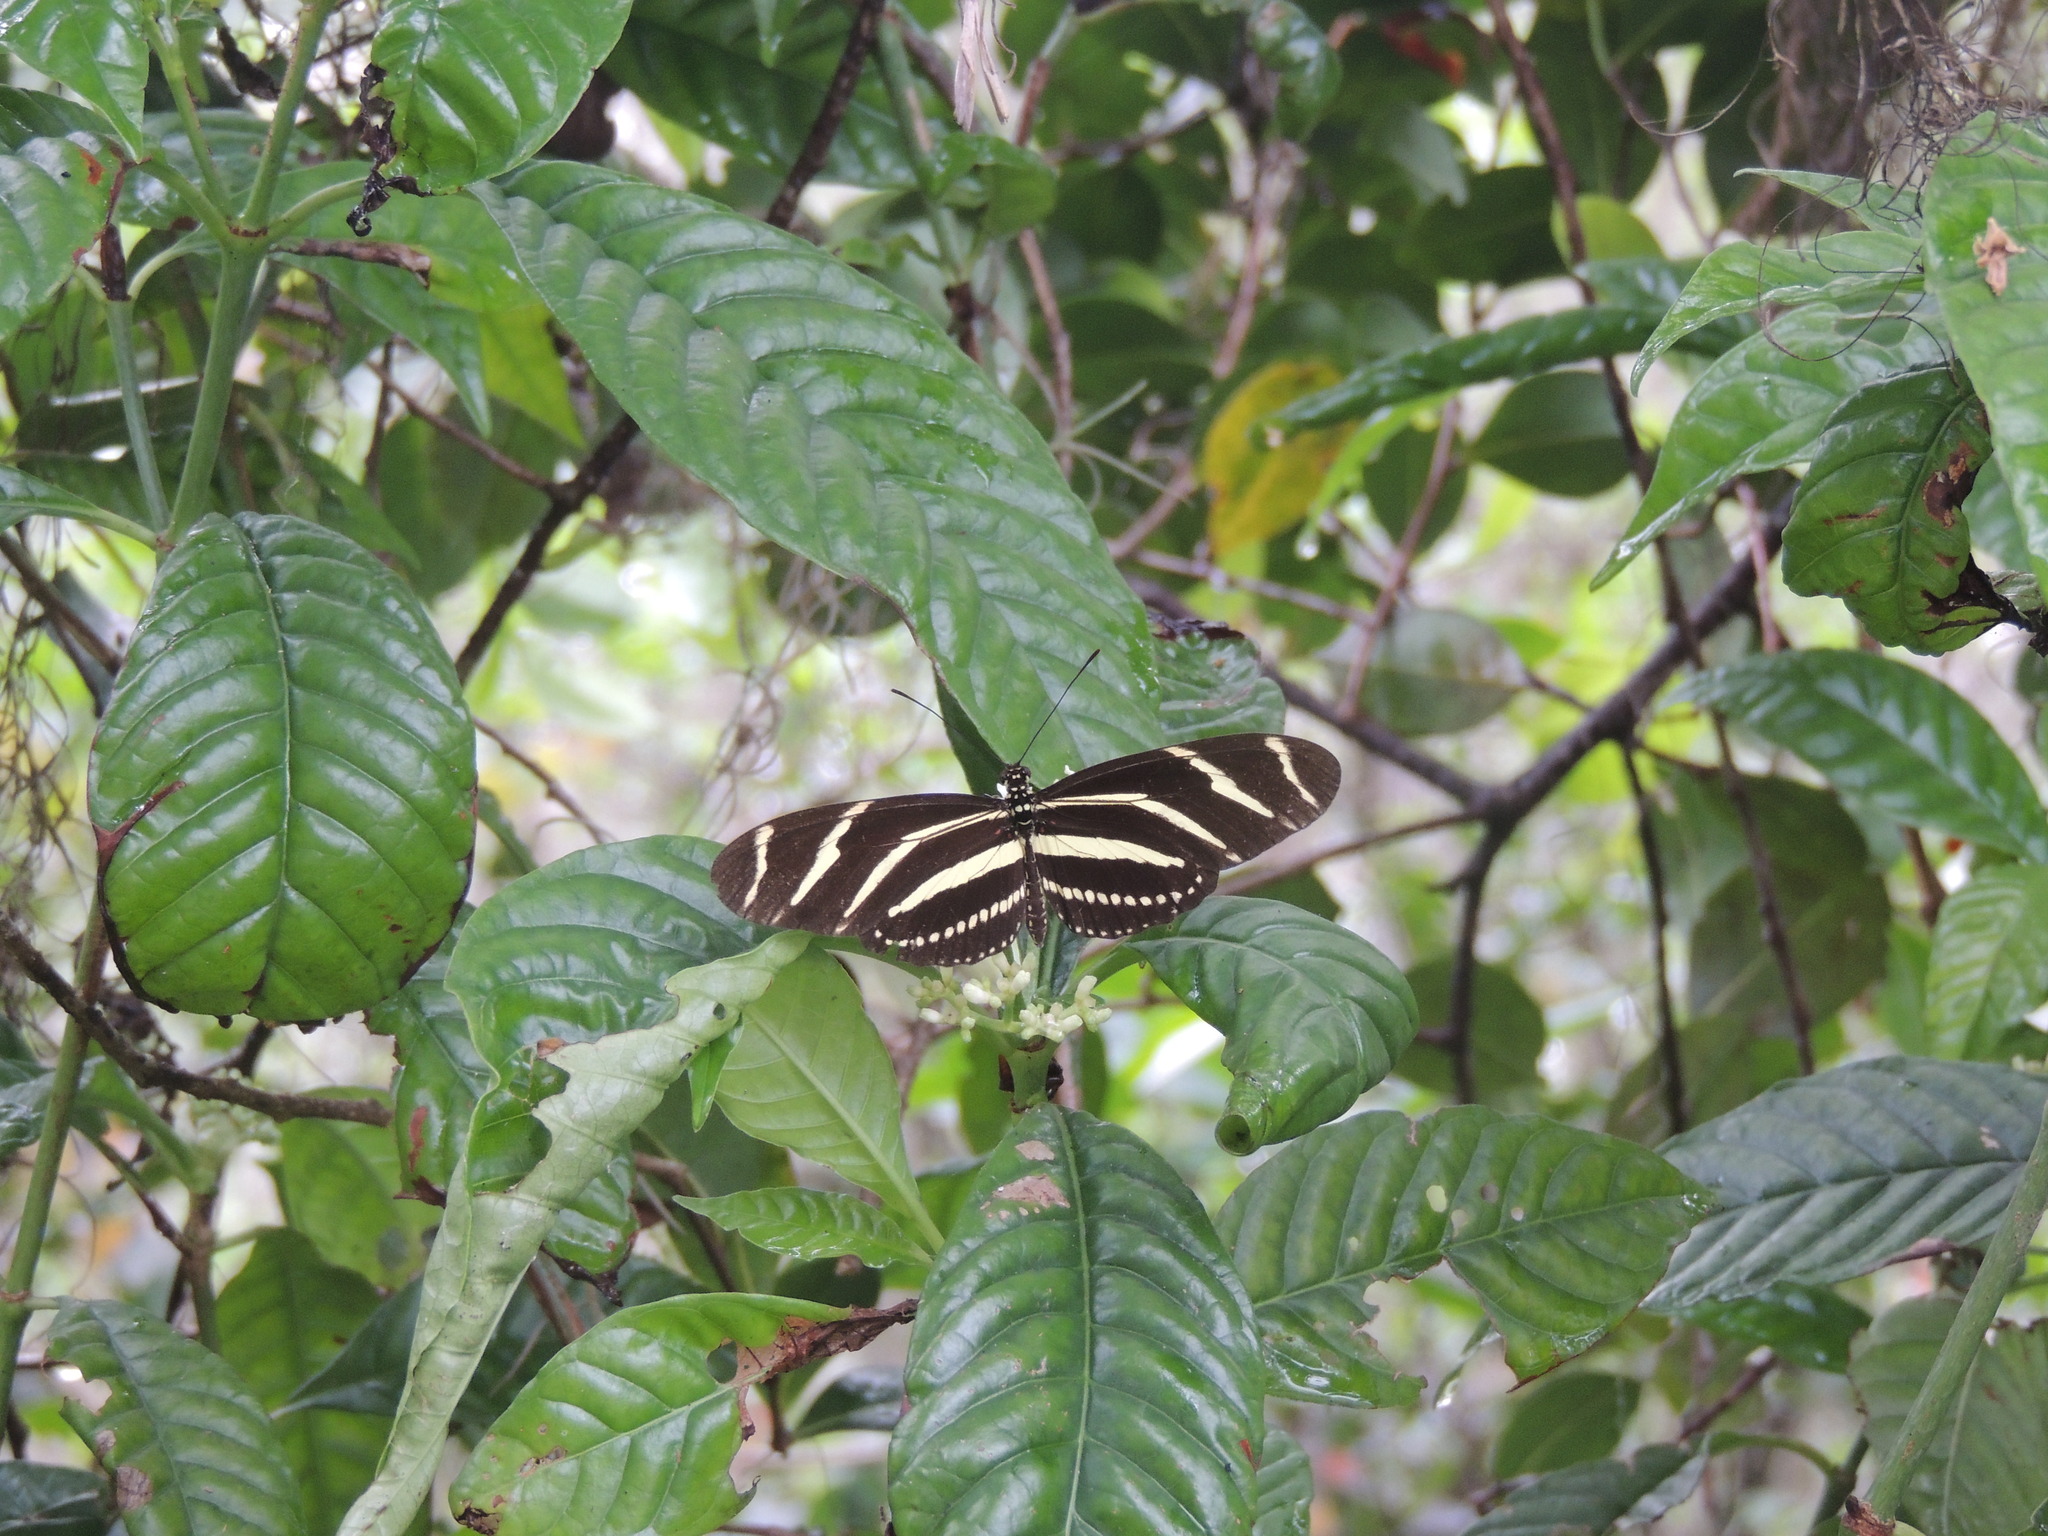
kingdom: Animalia
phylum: Arthropoda
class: Insecta
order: Lepidoptera
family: Nymphalidae
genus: Heliconius
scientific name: Heliconius charithonia
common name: Zebra long wing
